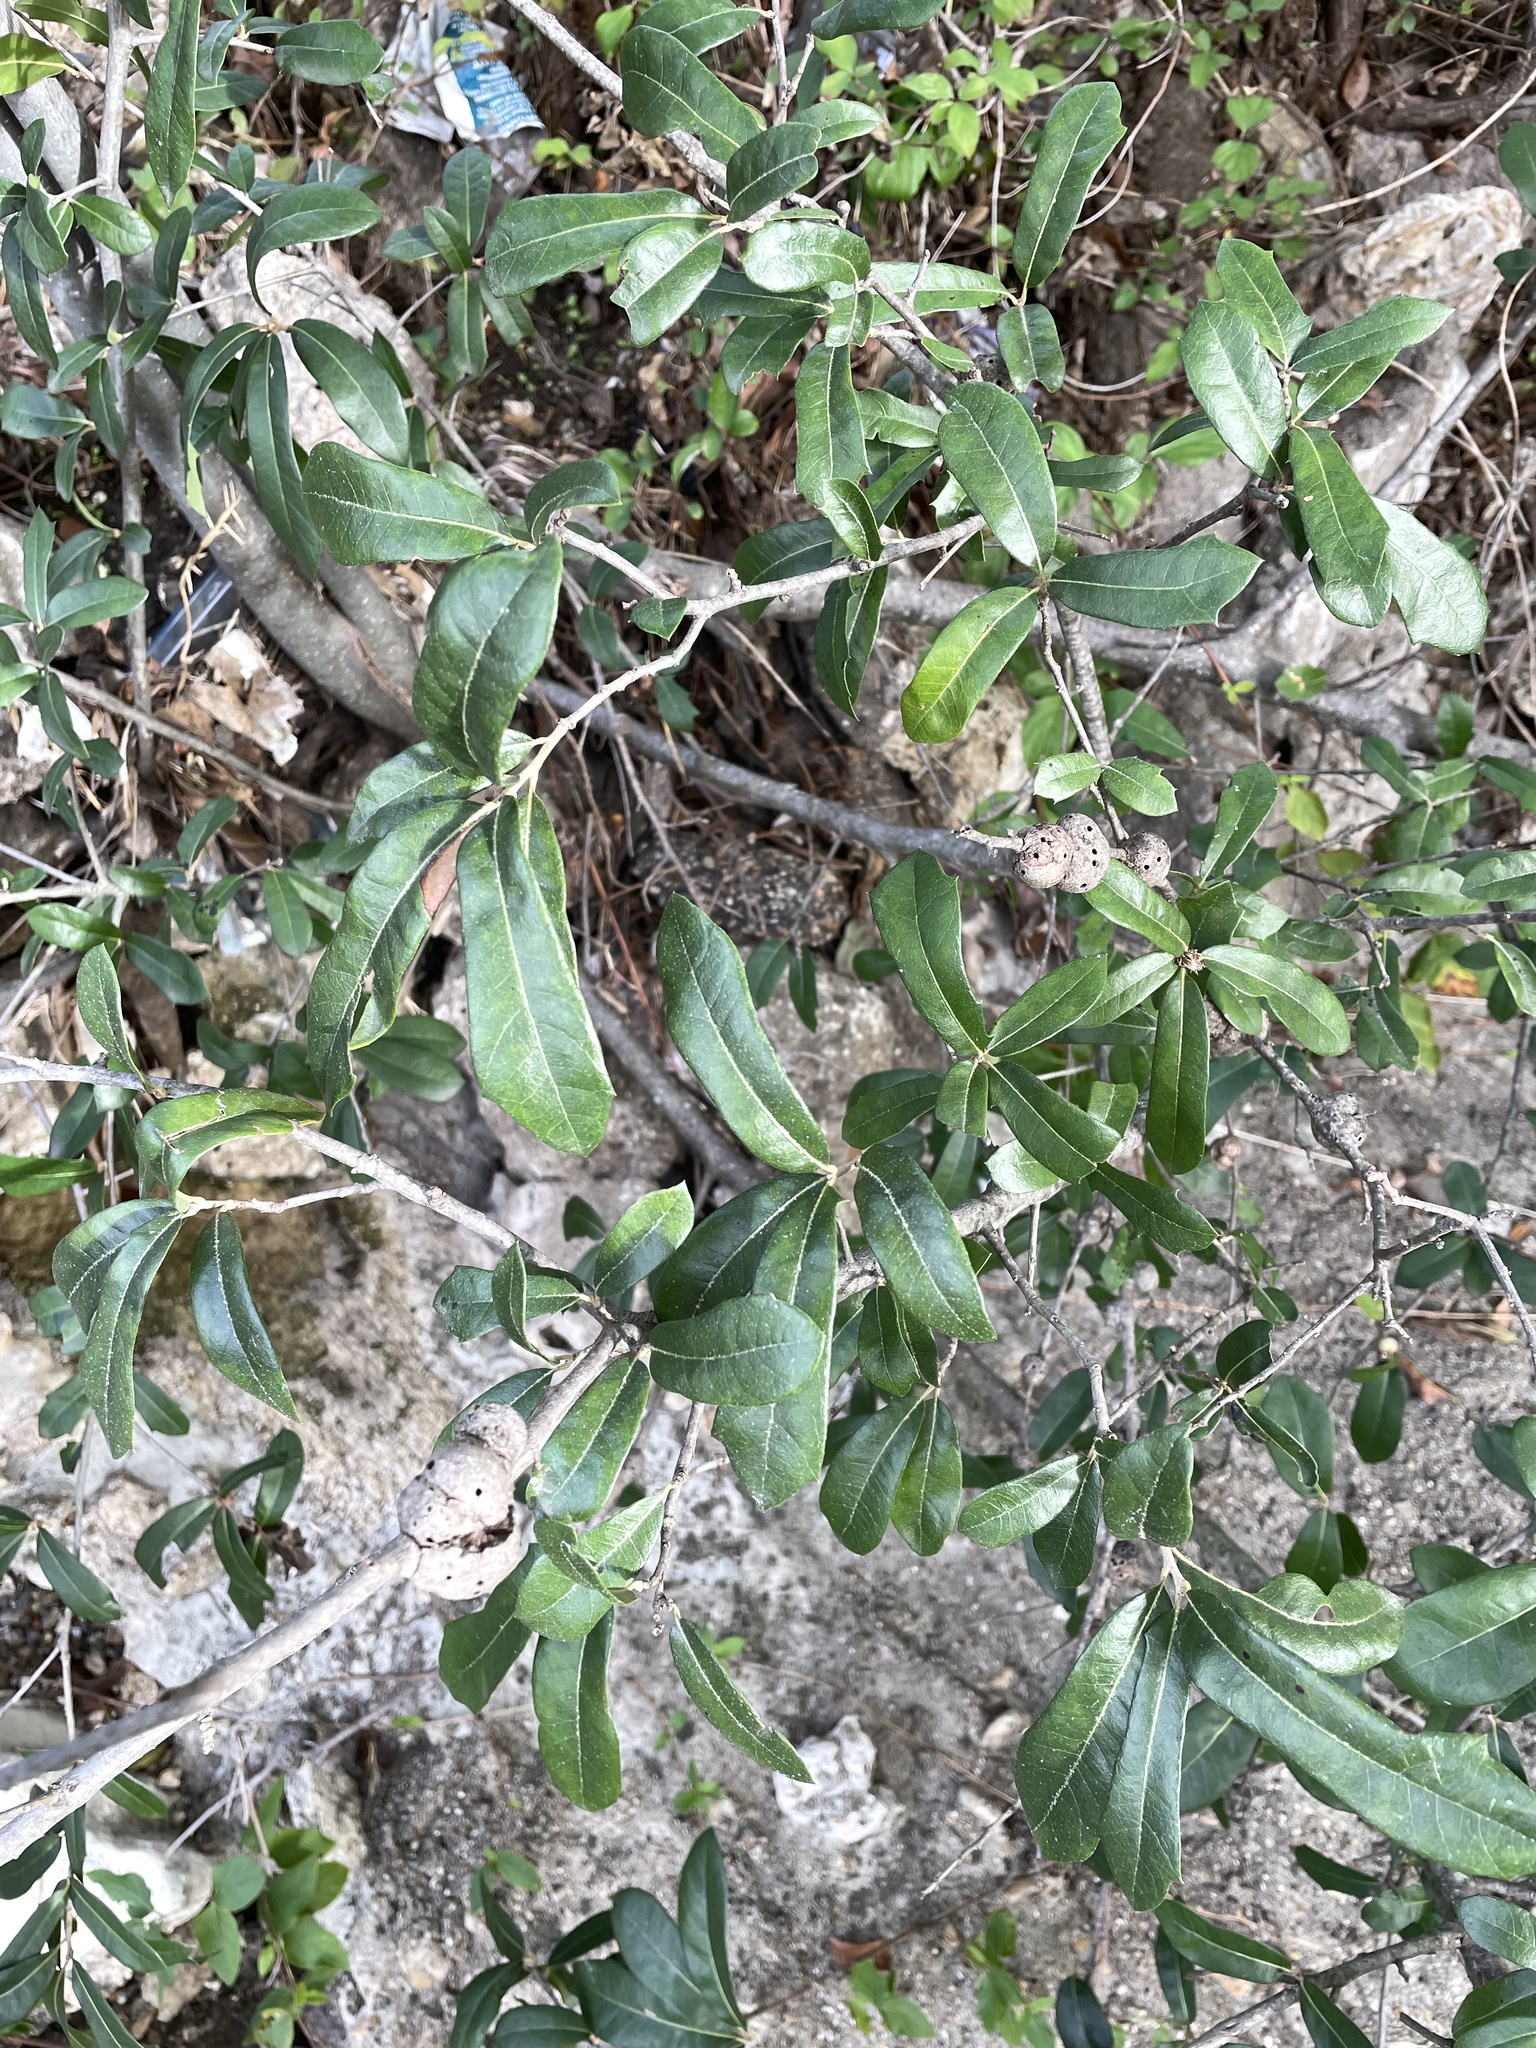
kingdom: Animalia
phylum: Arthropoda
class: Insecta
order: Hymenoptera
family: Cynipidae
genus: Callirhytis
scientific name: Callirhytis
